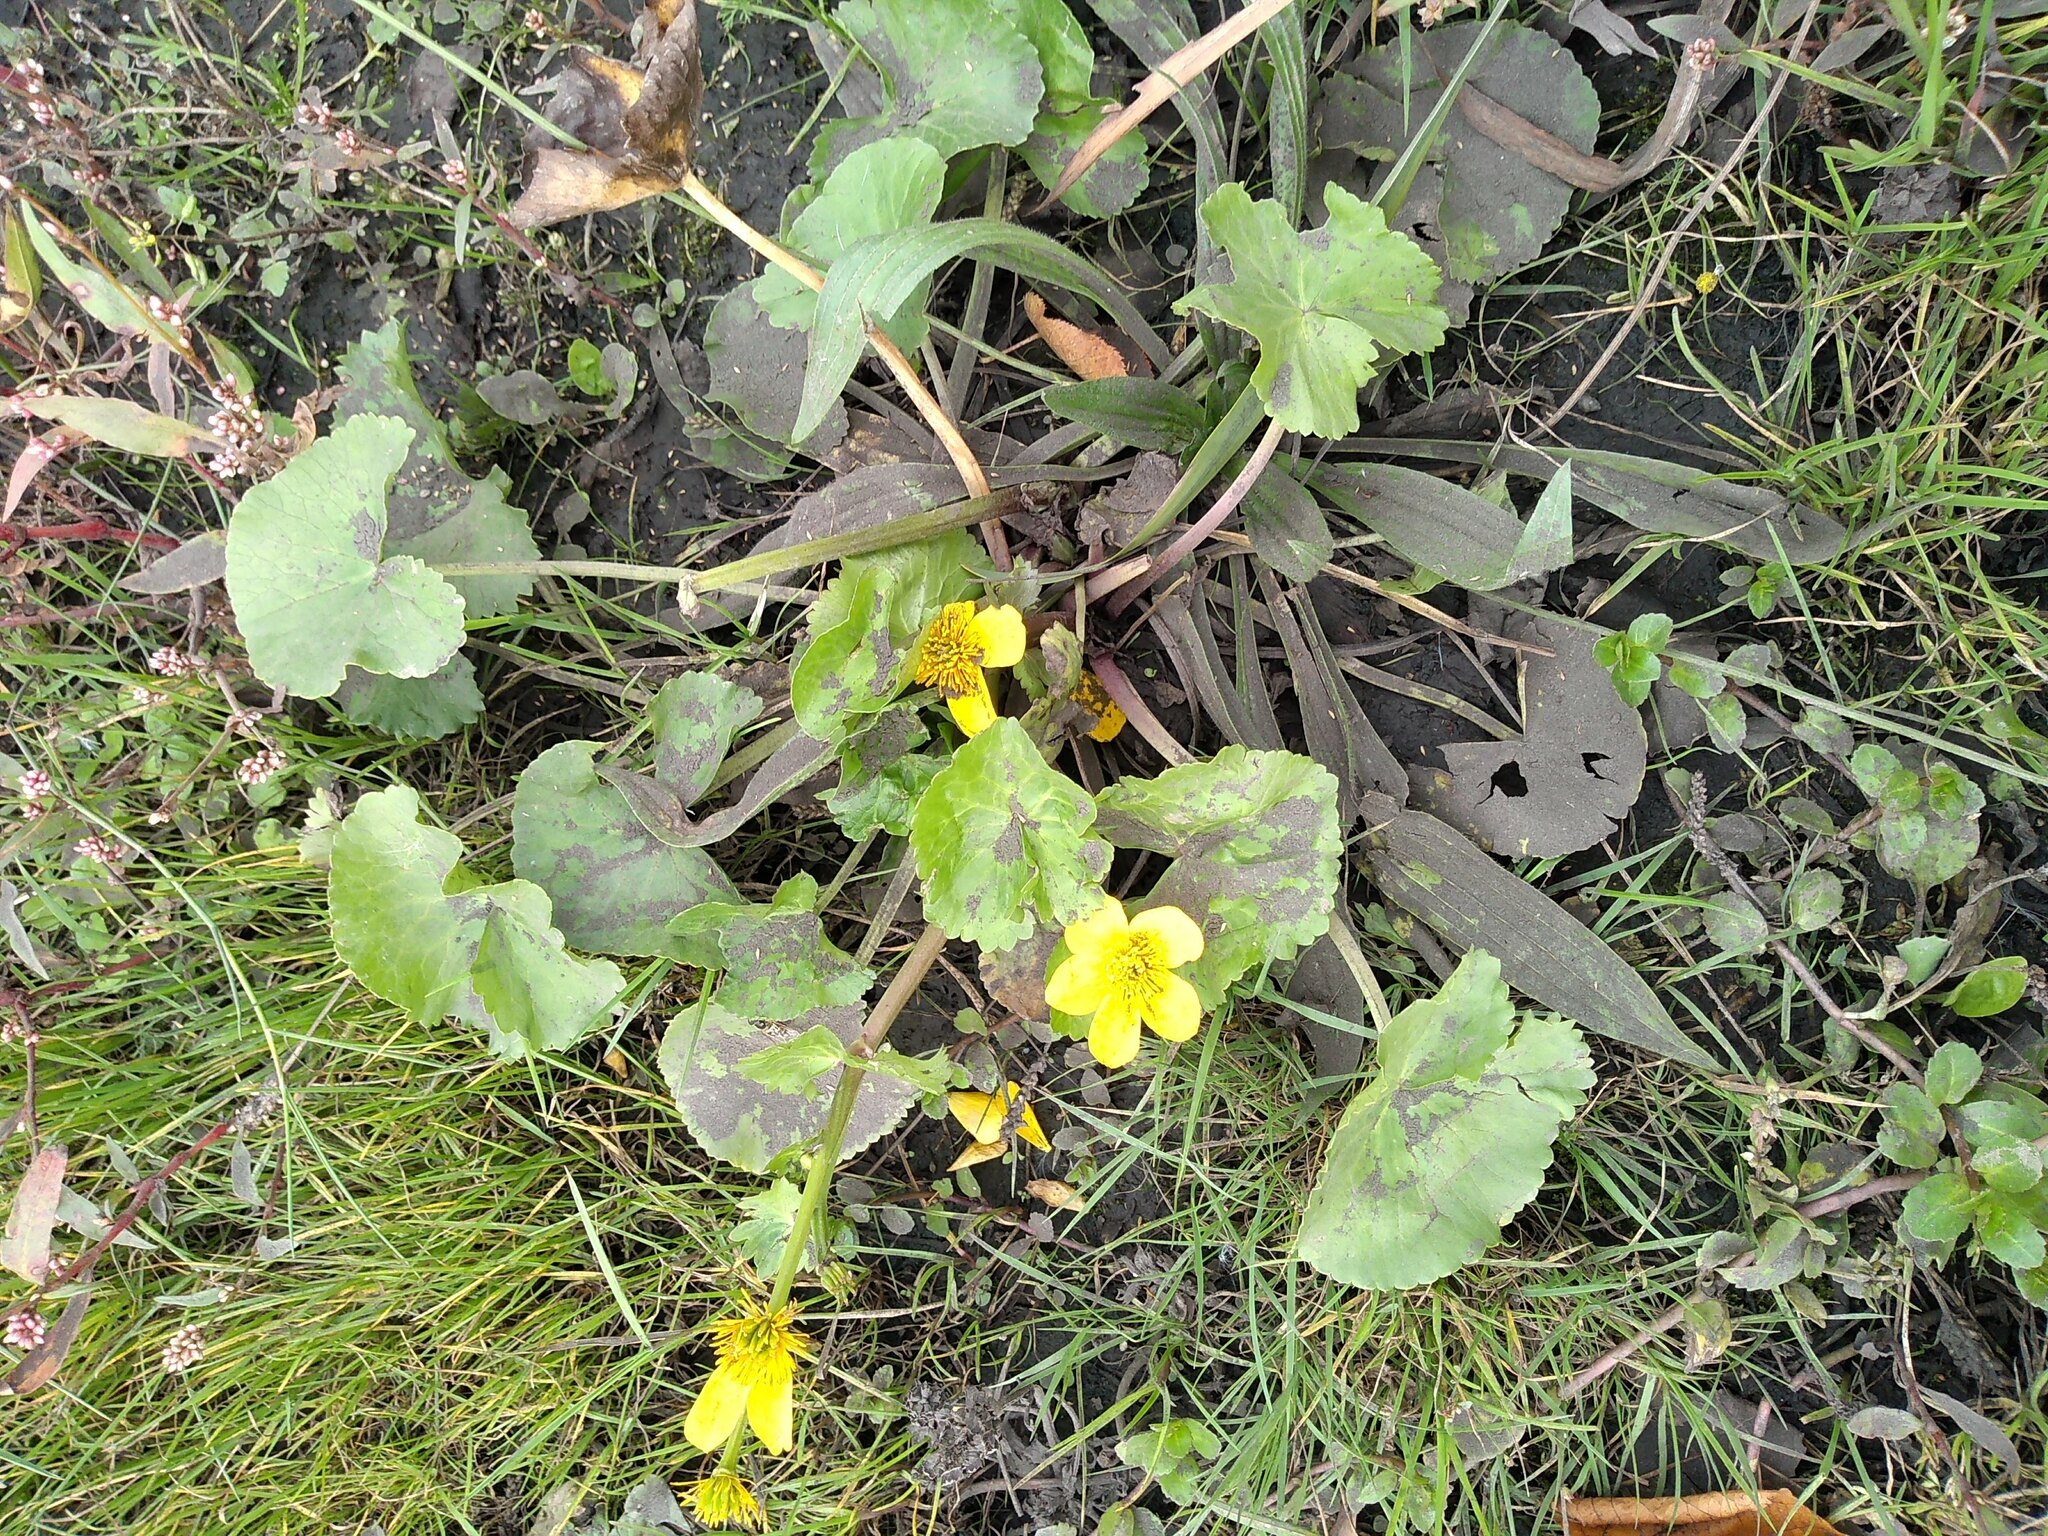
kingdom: Plantae
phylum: Tracheophyta
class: Magnoliopsida
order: Ranunculales
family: Ranunculaceae
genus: Caltha
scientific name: Caltha palustris
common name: Marsh marigold
